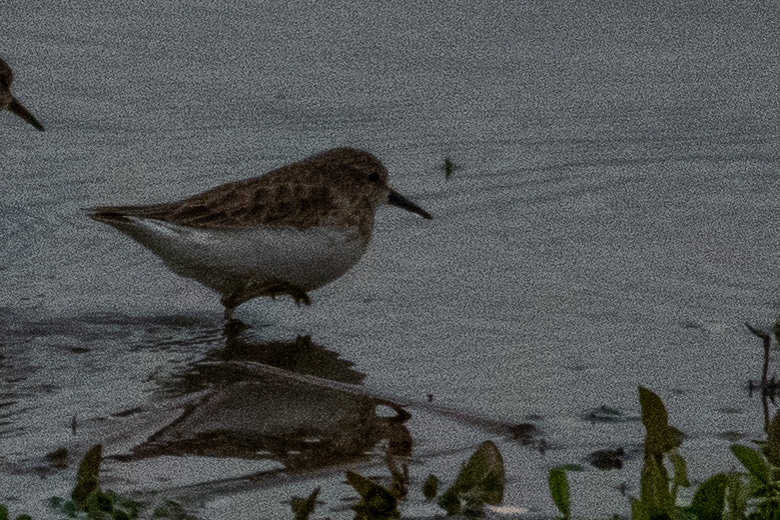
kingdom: Animalia
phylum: Chordata
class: Aves
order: Charadriiformes
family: Scolopacidae
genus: Calidris
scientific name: Calidris minutilla
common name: Least sandpiper
